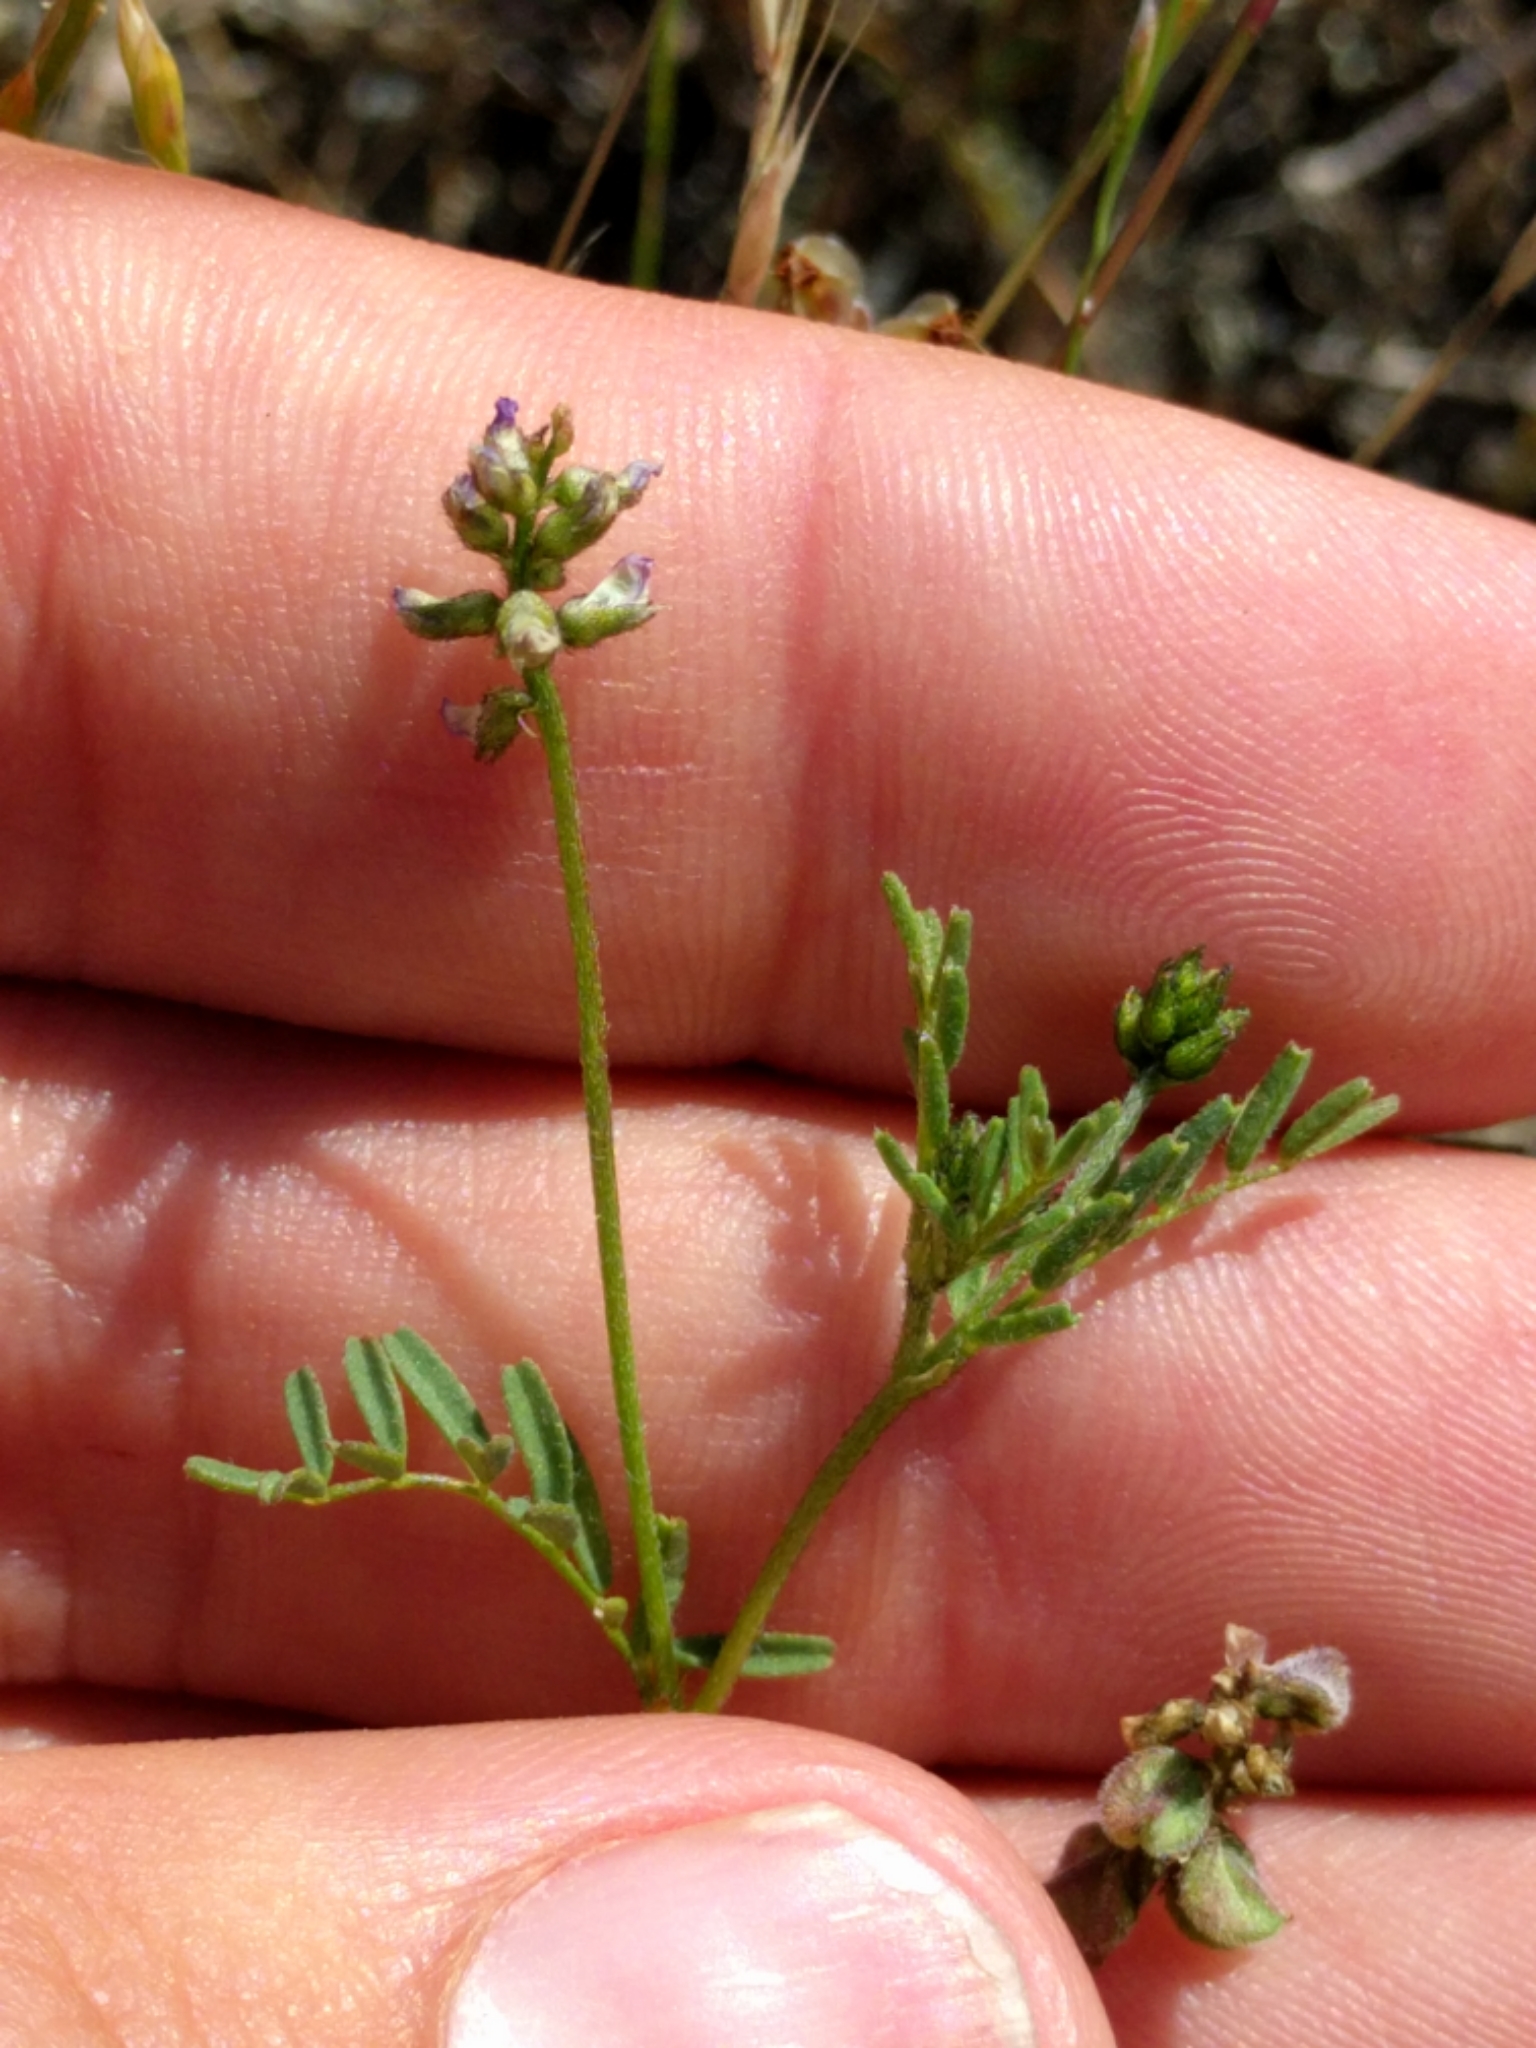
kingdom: Plantae
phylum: Tracheophyta
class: Magnoliopsida
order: Fabales
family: Fabaceae
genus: Astragalus
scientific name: Astragalus gambelianus
